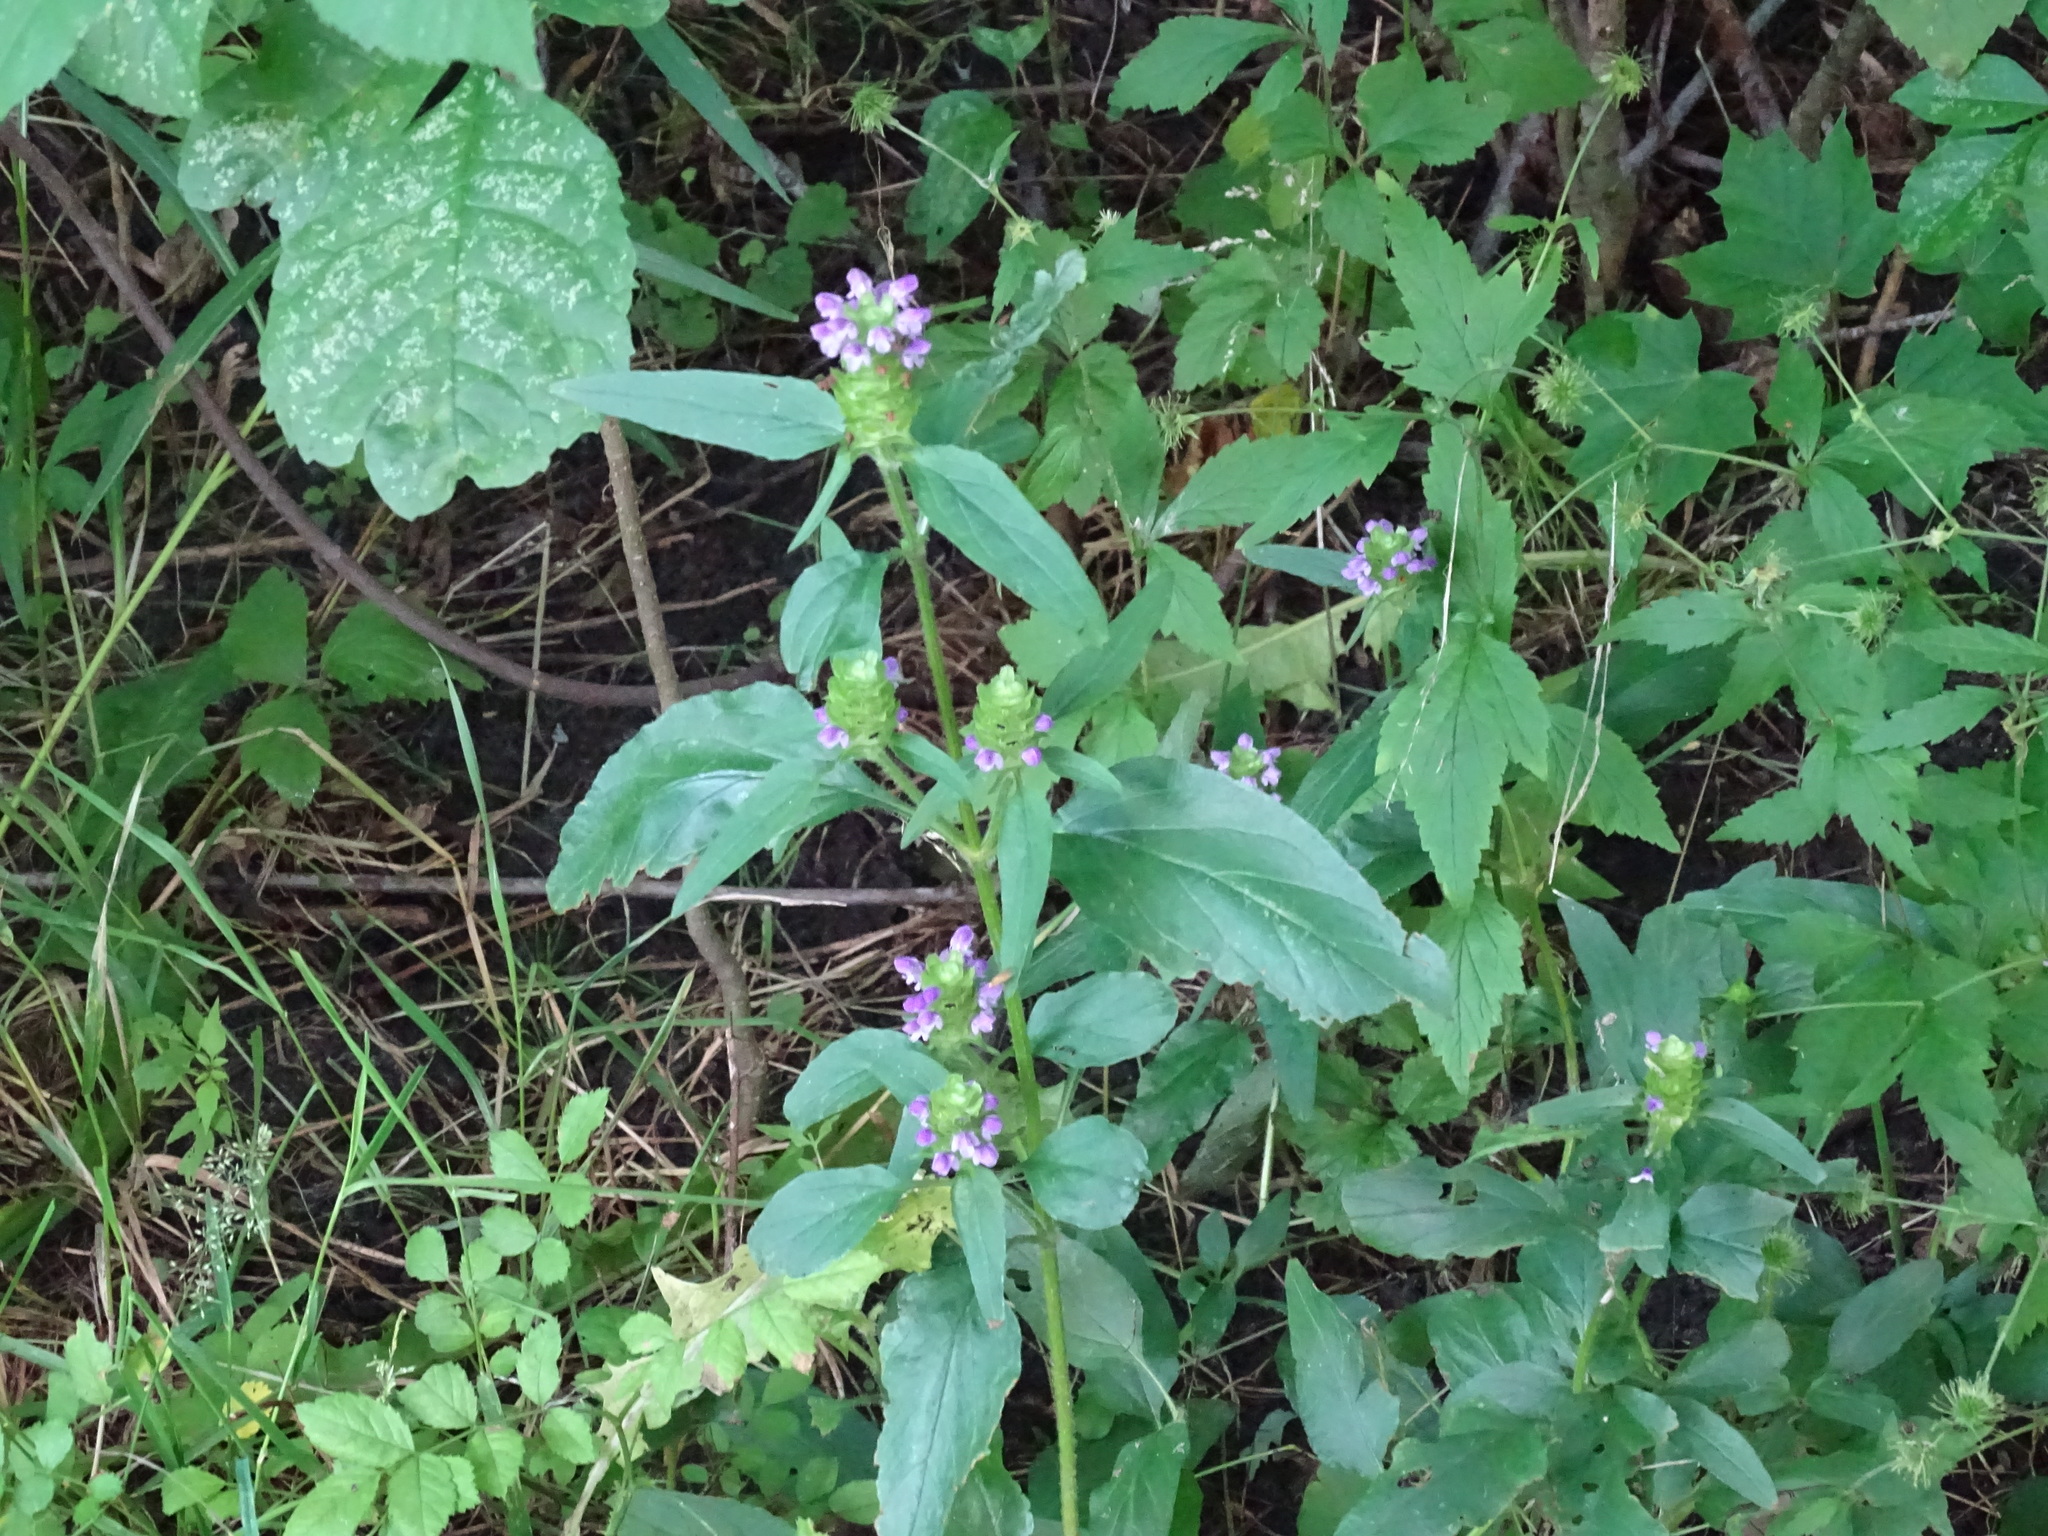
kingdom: Plantae
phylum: Tracheophyta
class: Magnoliopsida
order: Lamiales
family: Lamiaceae
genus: Prunella
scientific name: Prunella vulgaris
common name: Heal-all
